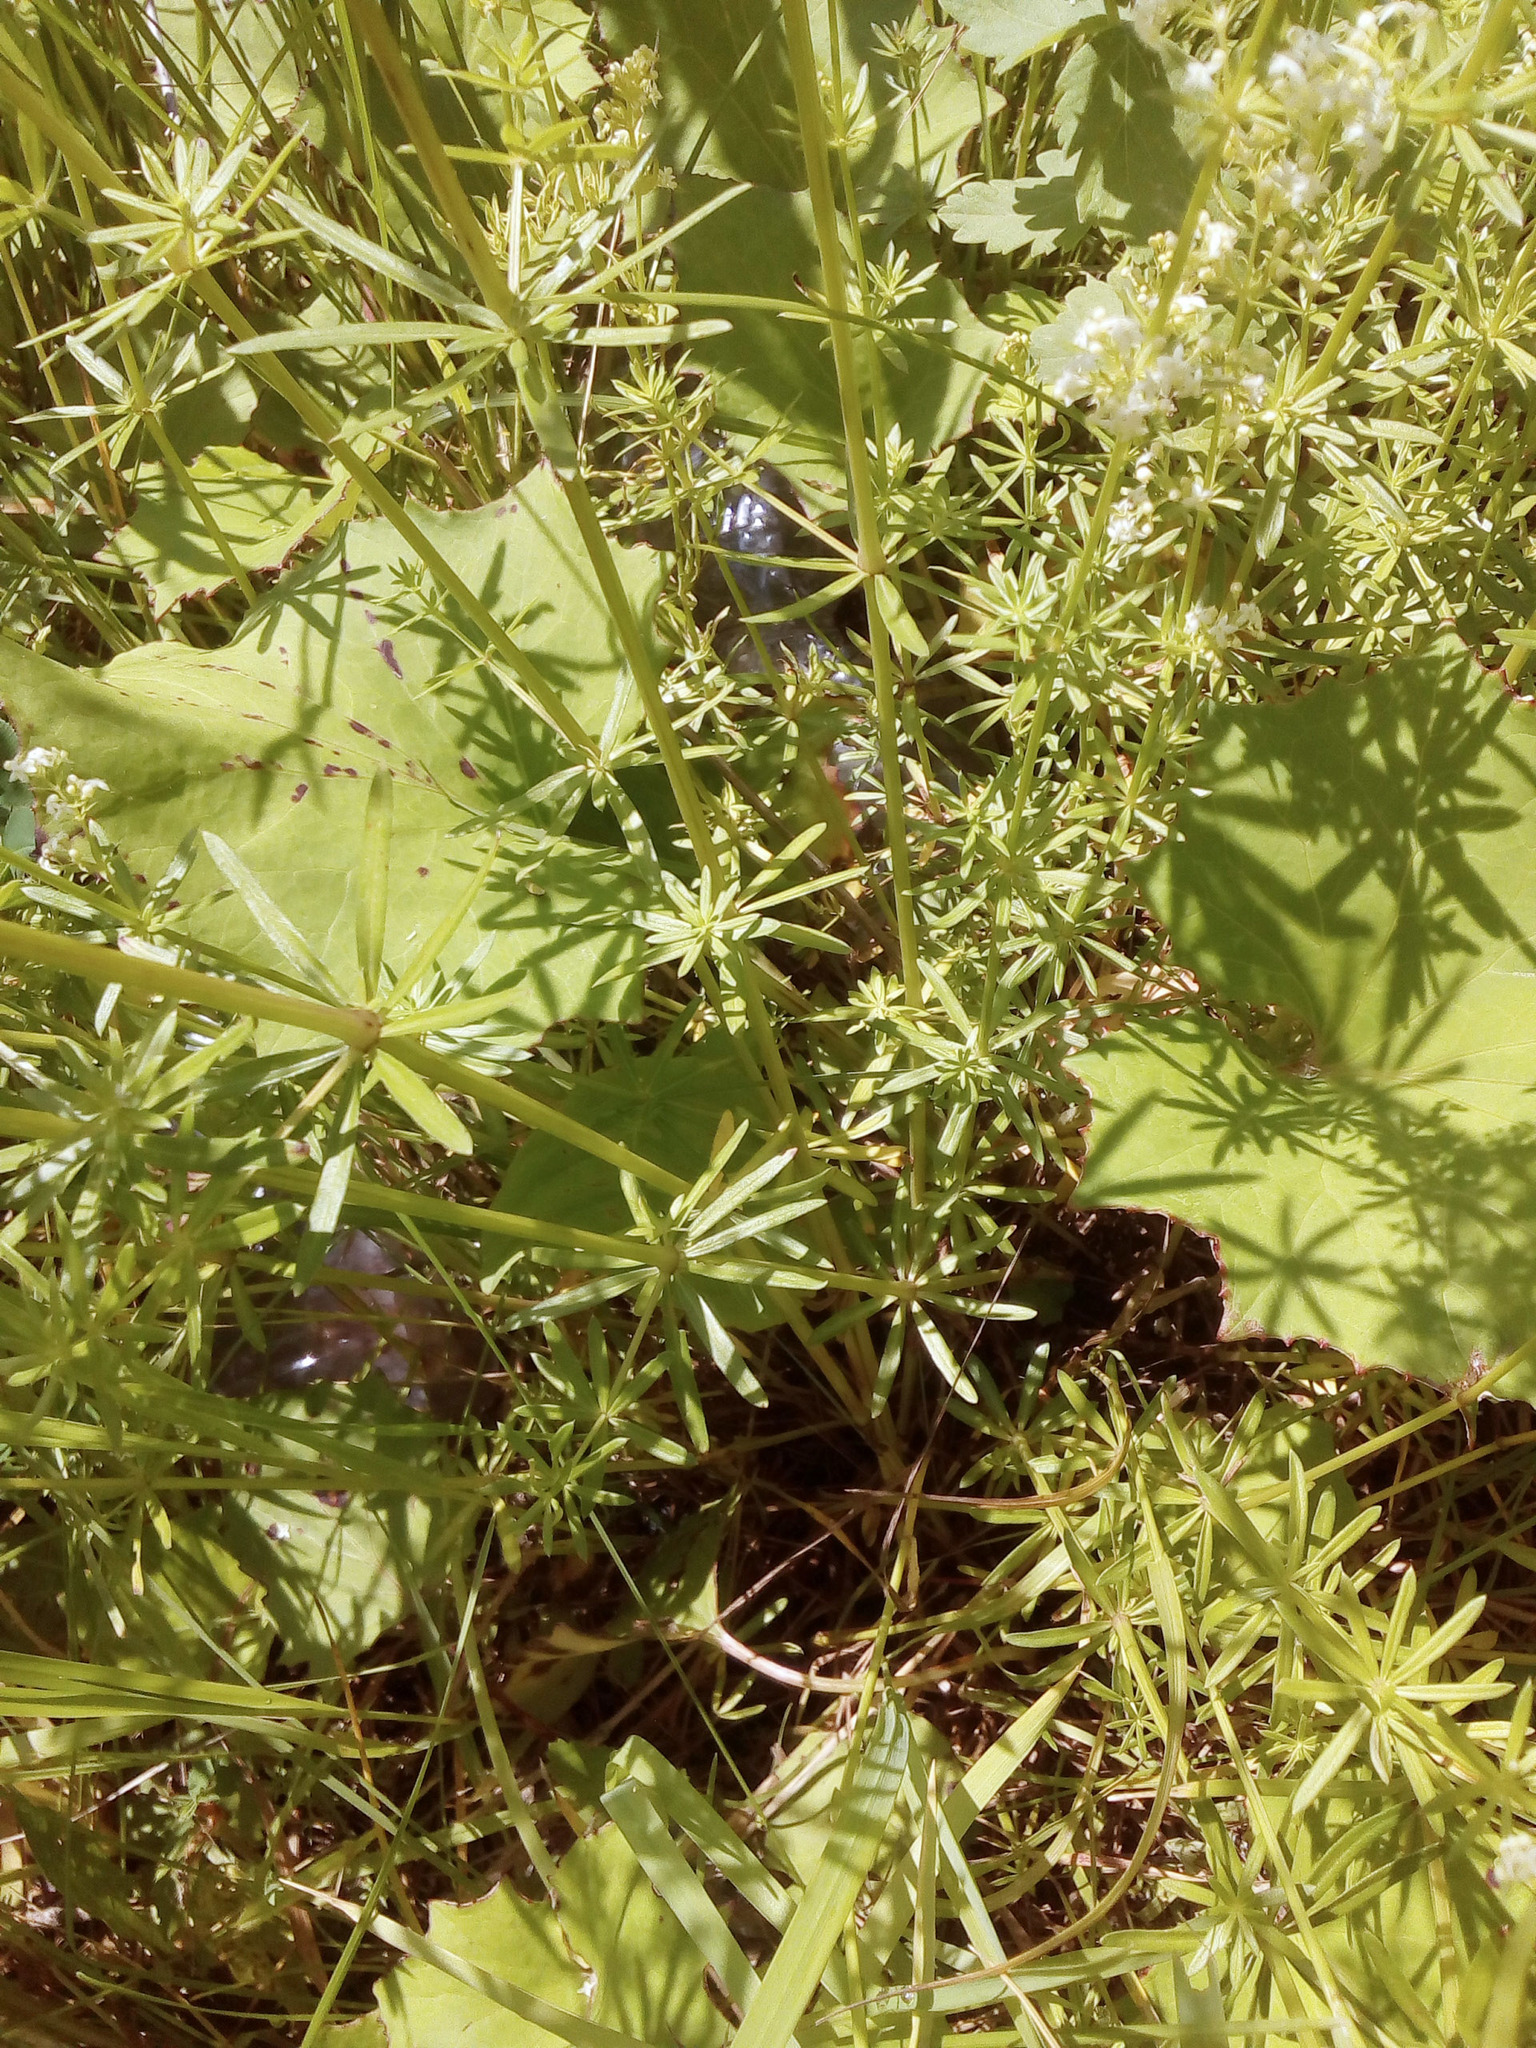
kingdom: Plantae
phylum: Tracheophyta
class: Magnoliopsida
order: Gentianales
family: Rubiaceae
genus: Galium
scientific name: Galium mollugo
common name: Hedge bedstraw
